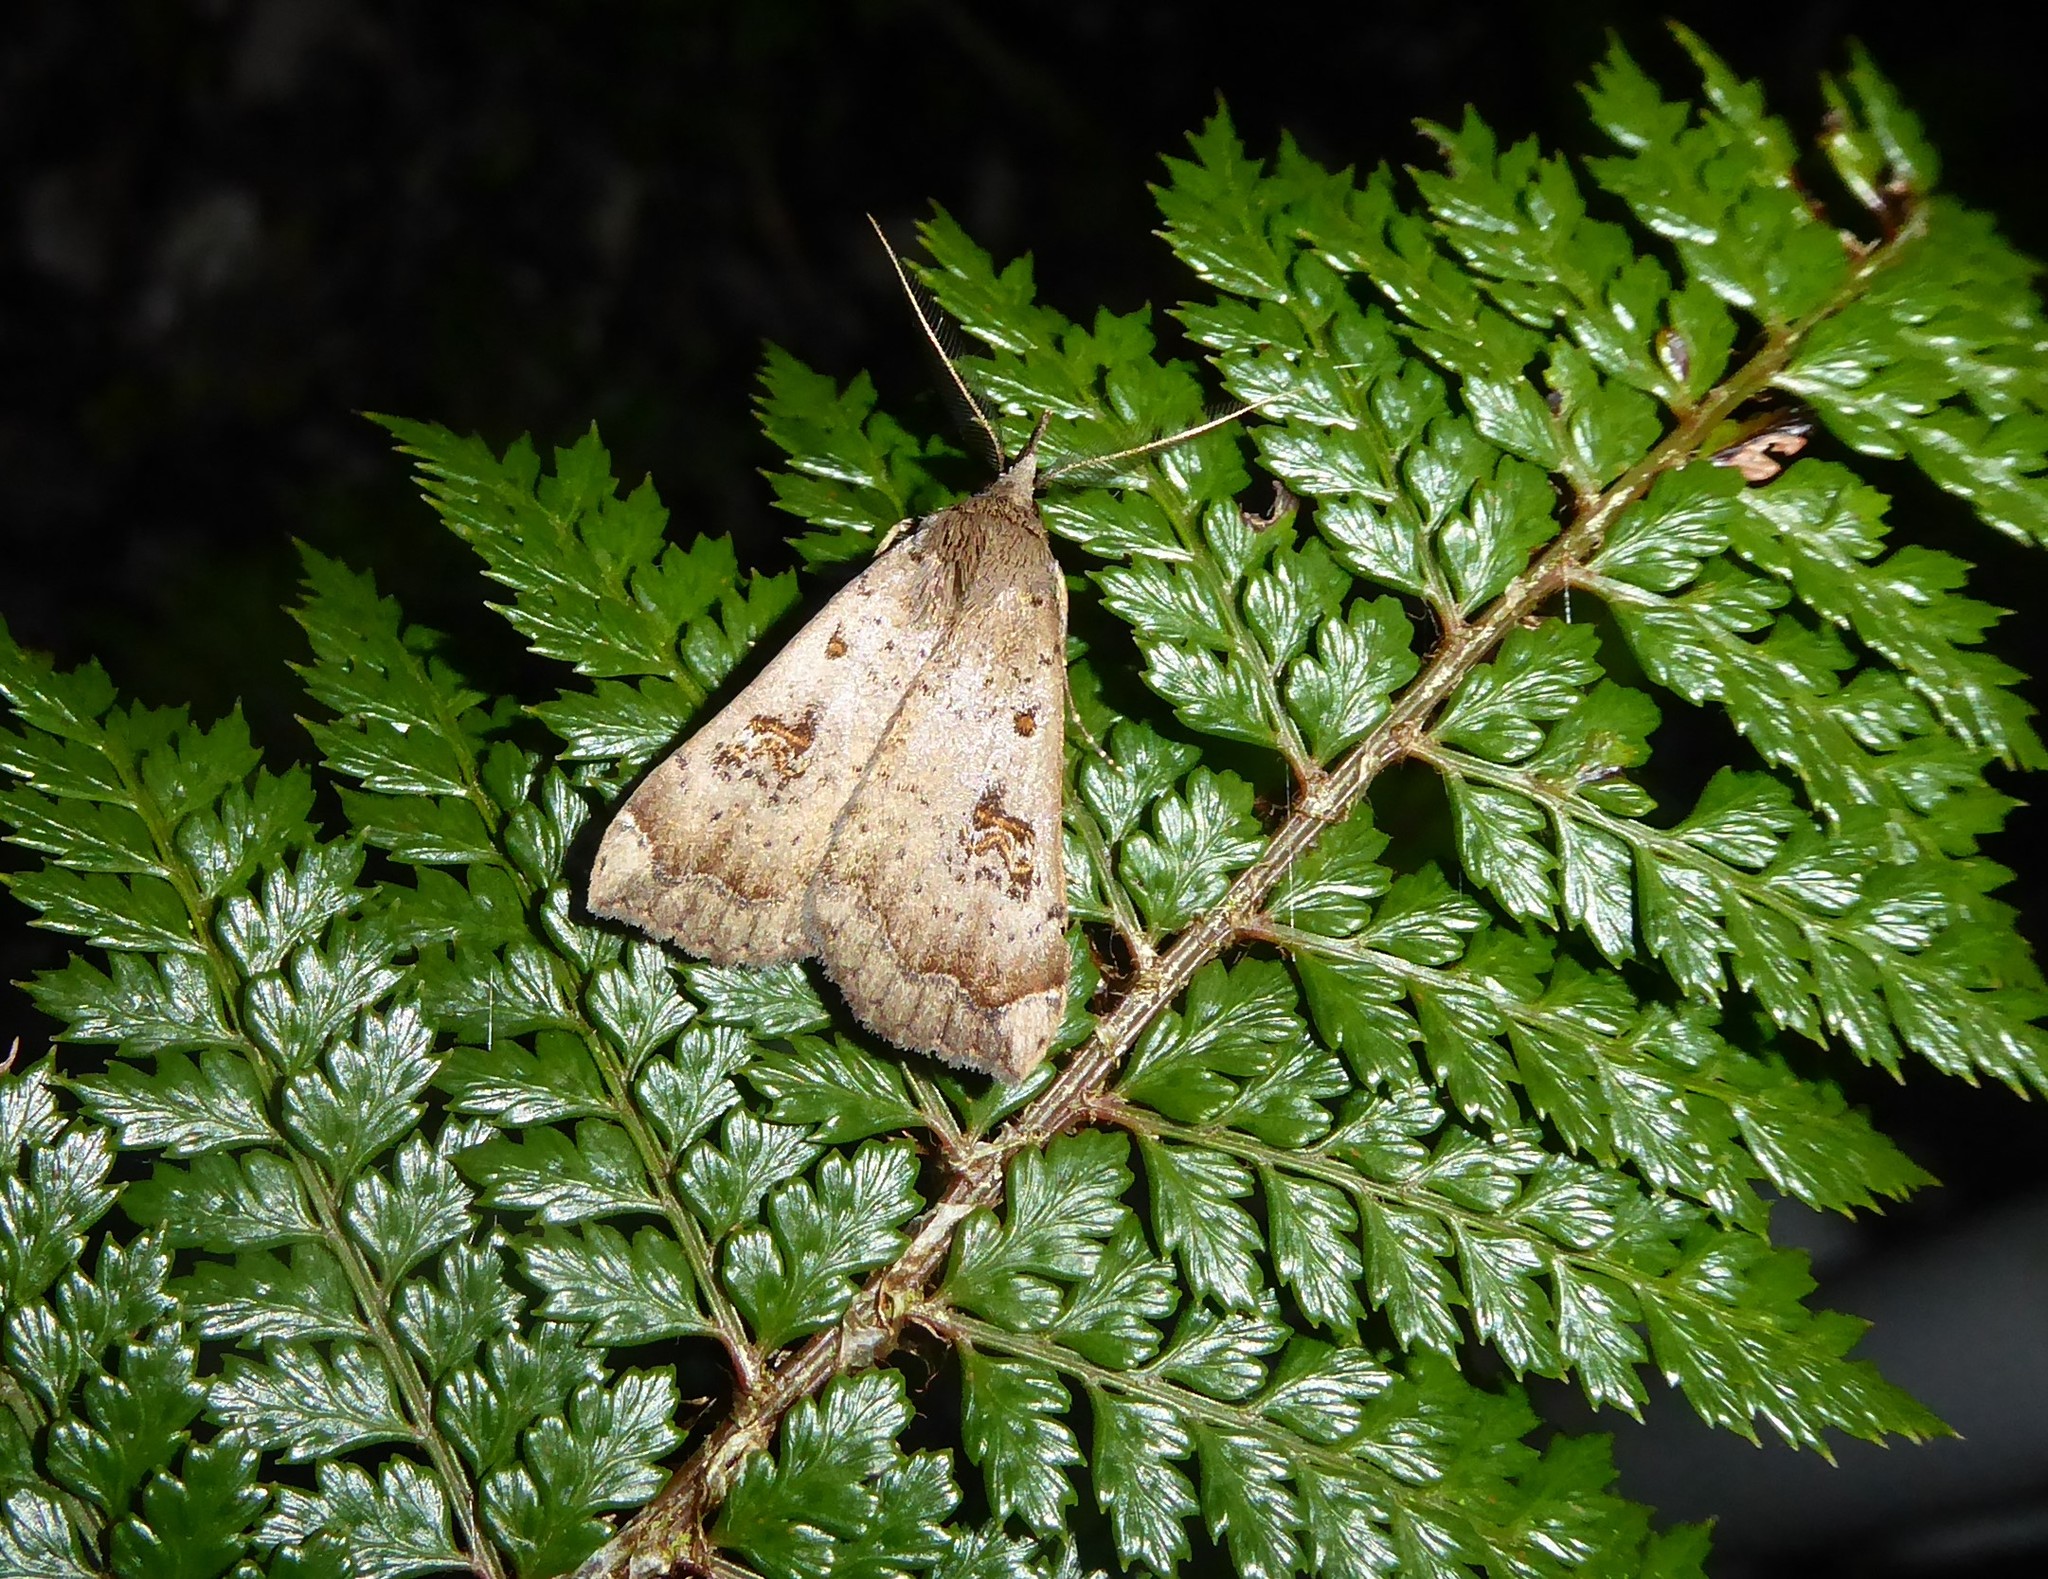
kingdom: Animalia
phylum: Arthropoda
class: Insecta
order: Lepidoptera
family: Erebidae
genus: Rhapsa
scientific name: Rhapsa scotosialis
